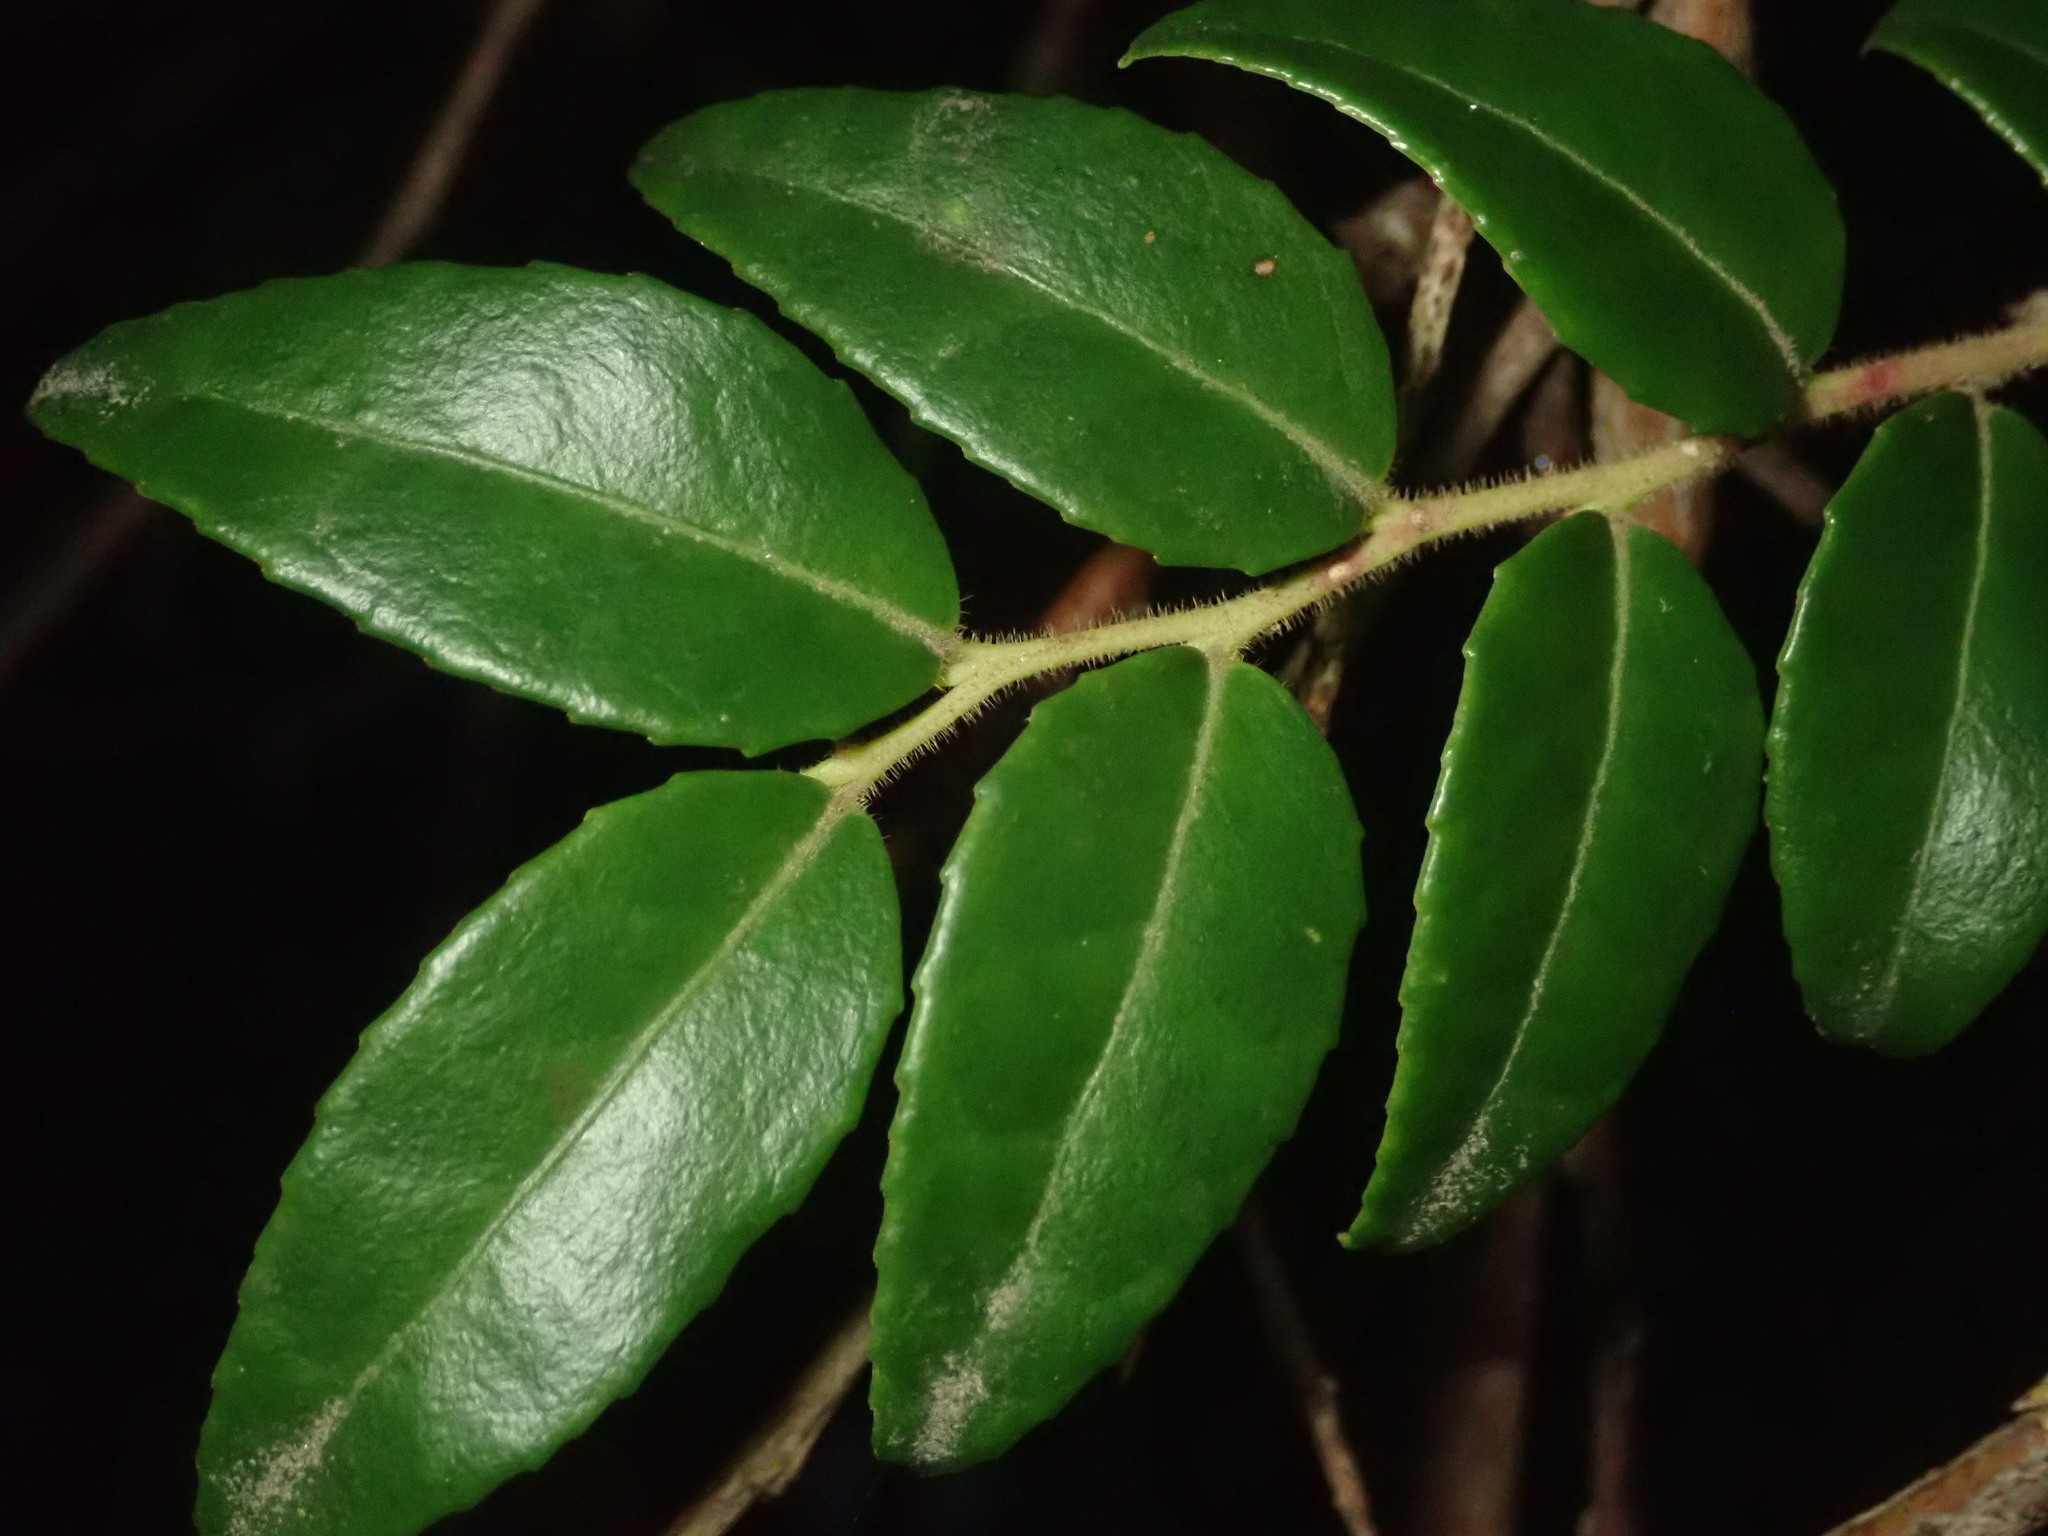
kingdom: Plantae
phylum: Tracheophyta
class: Magnoliopsida
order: Ericales
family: Ericaceae
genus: Vaccinium
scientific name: Vaccinium ovatum
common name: California-huckleberry
